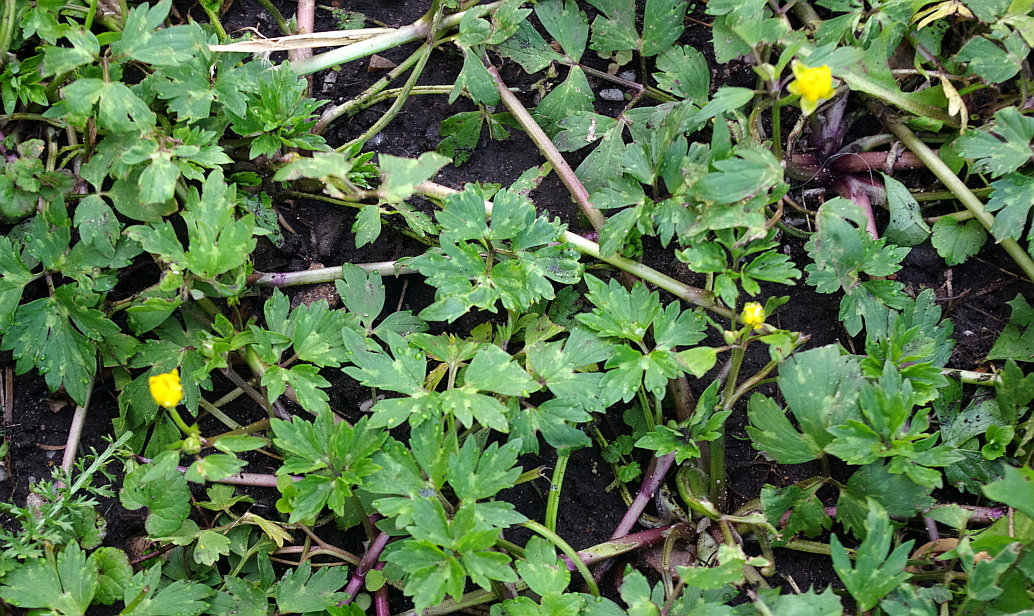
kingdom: Plantae
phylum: Tracheophyta
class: Magnoliopsida
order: Ranunculales
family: Ranunculaceae
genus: Ranunculus
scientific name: Ranunculus repens
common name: Creeping buttercup
